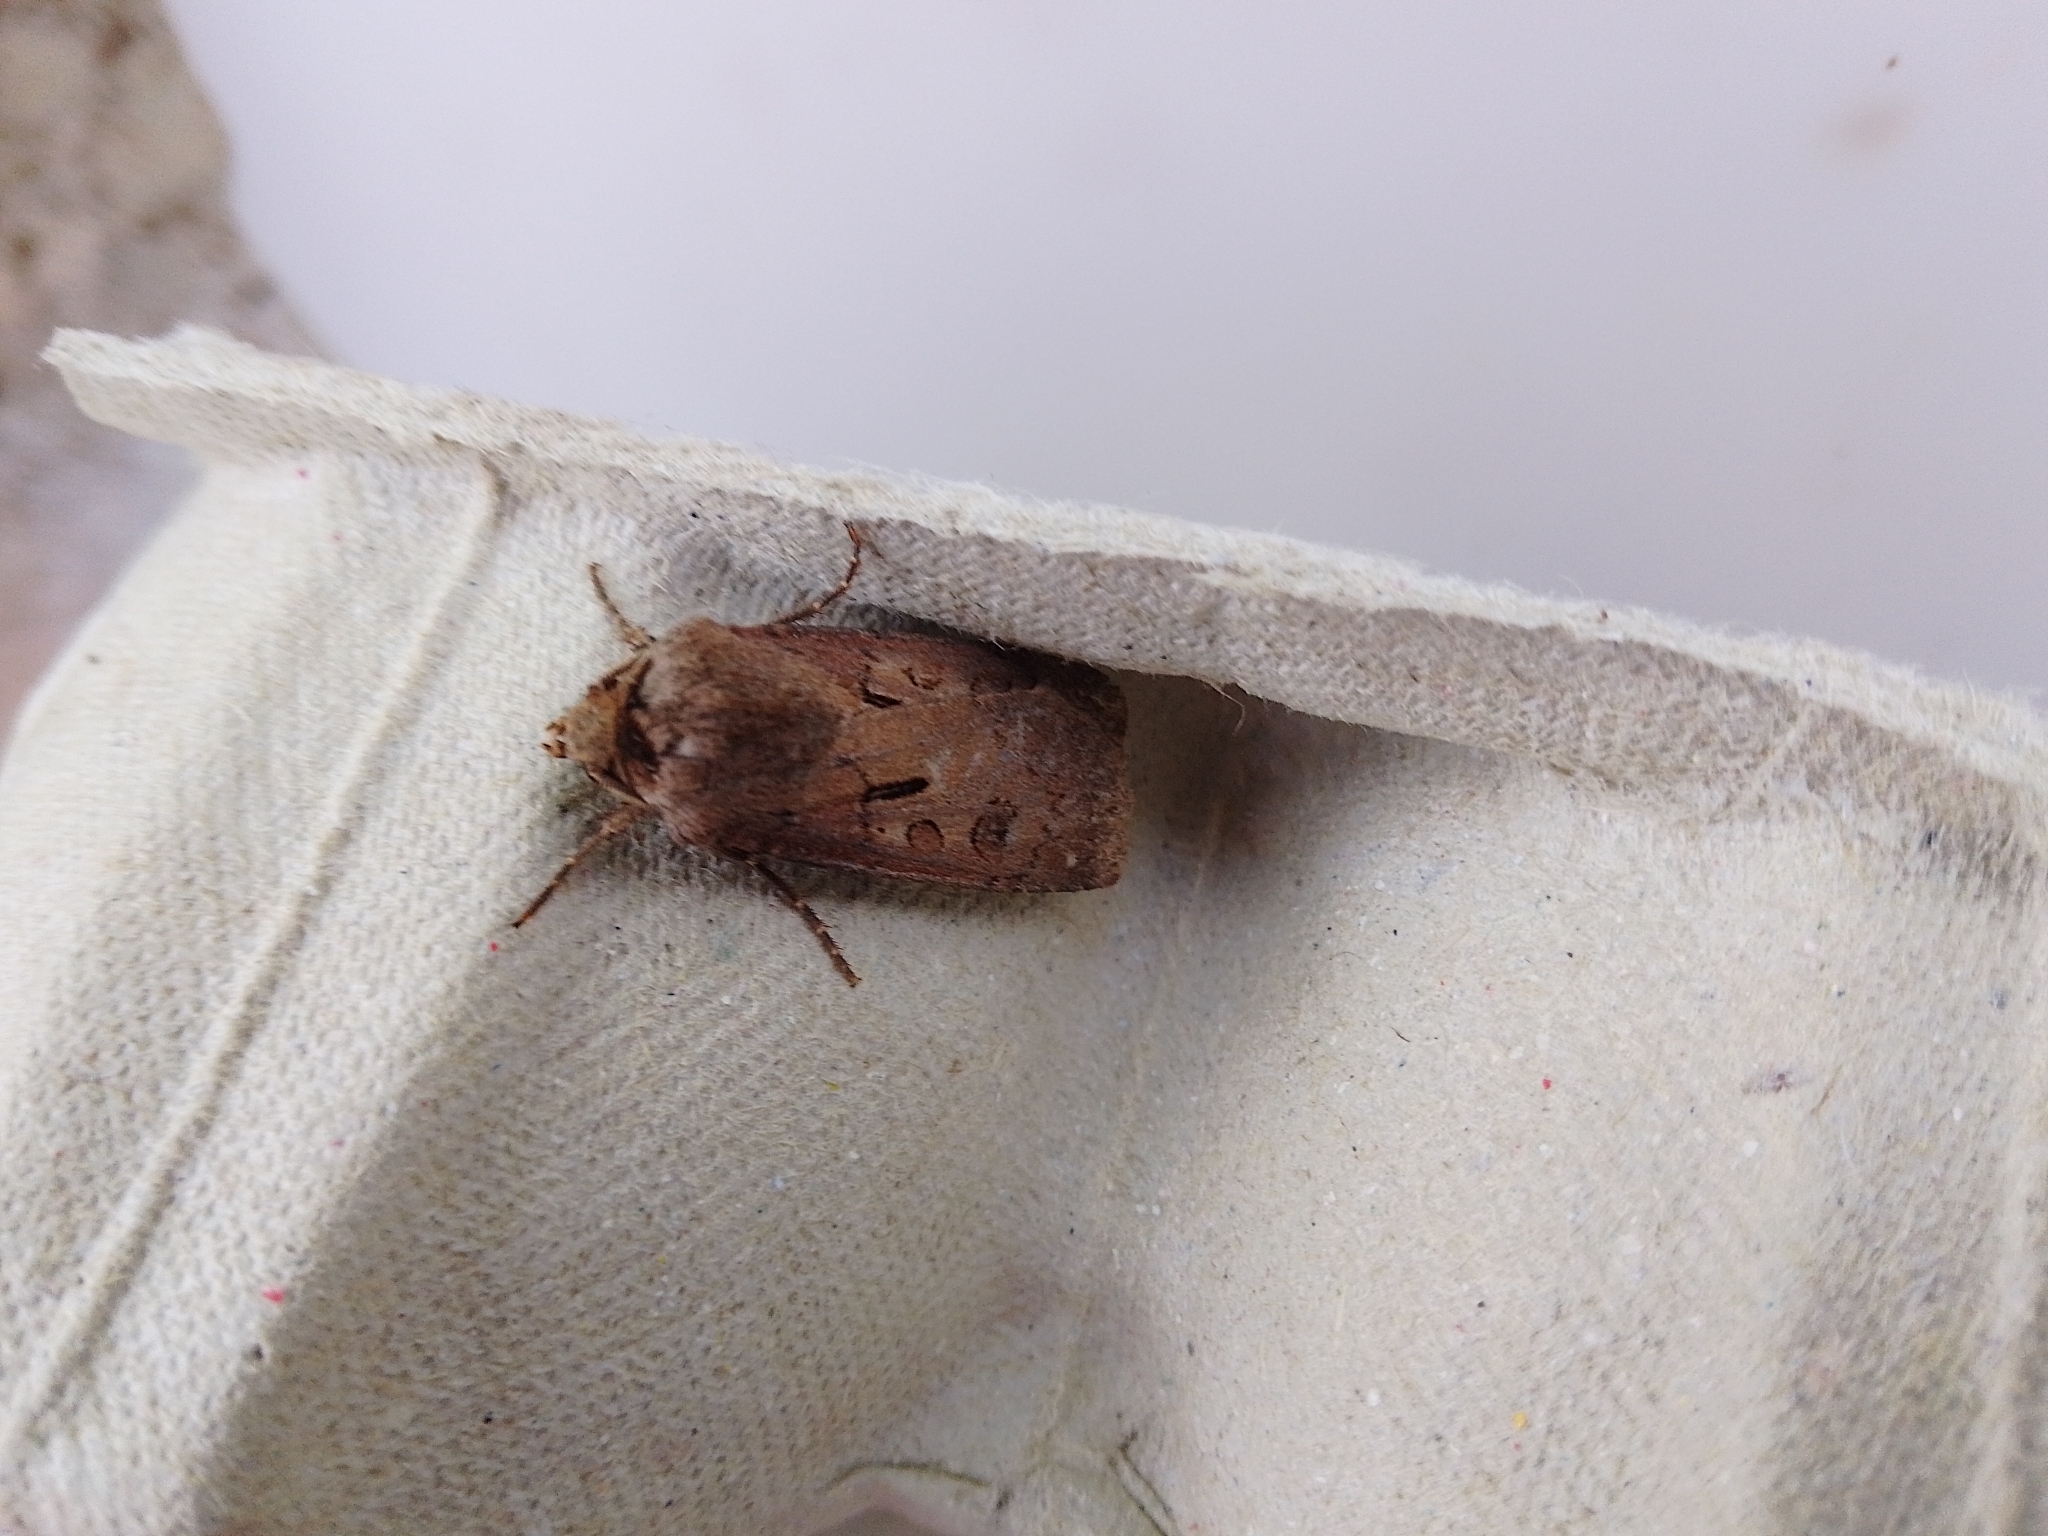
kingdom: Animalia
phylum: Arthropoda
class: Insecta
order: Lepidoptera
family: Noctuidae
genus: Agrotis
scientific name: Agrotis exclamationis
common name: Heart and dart
